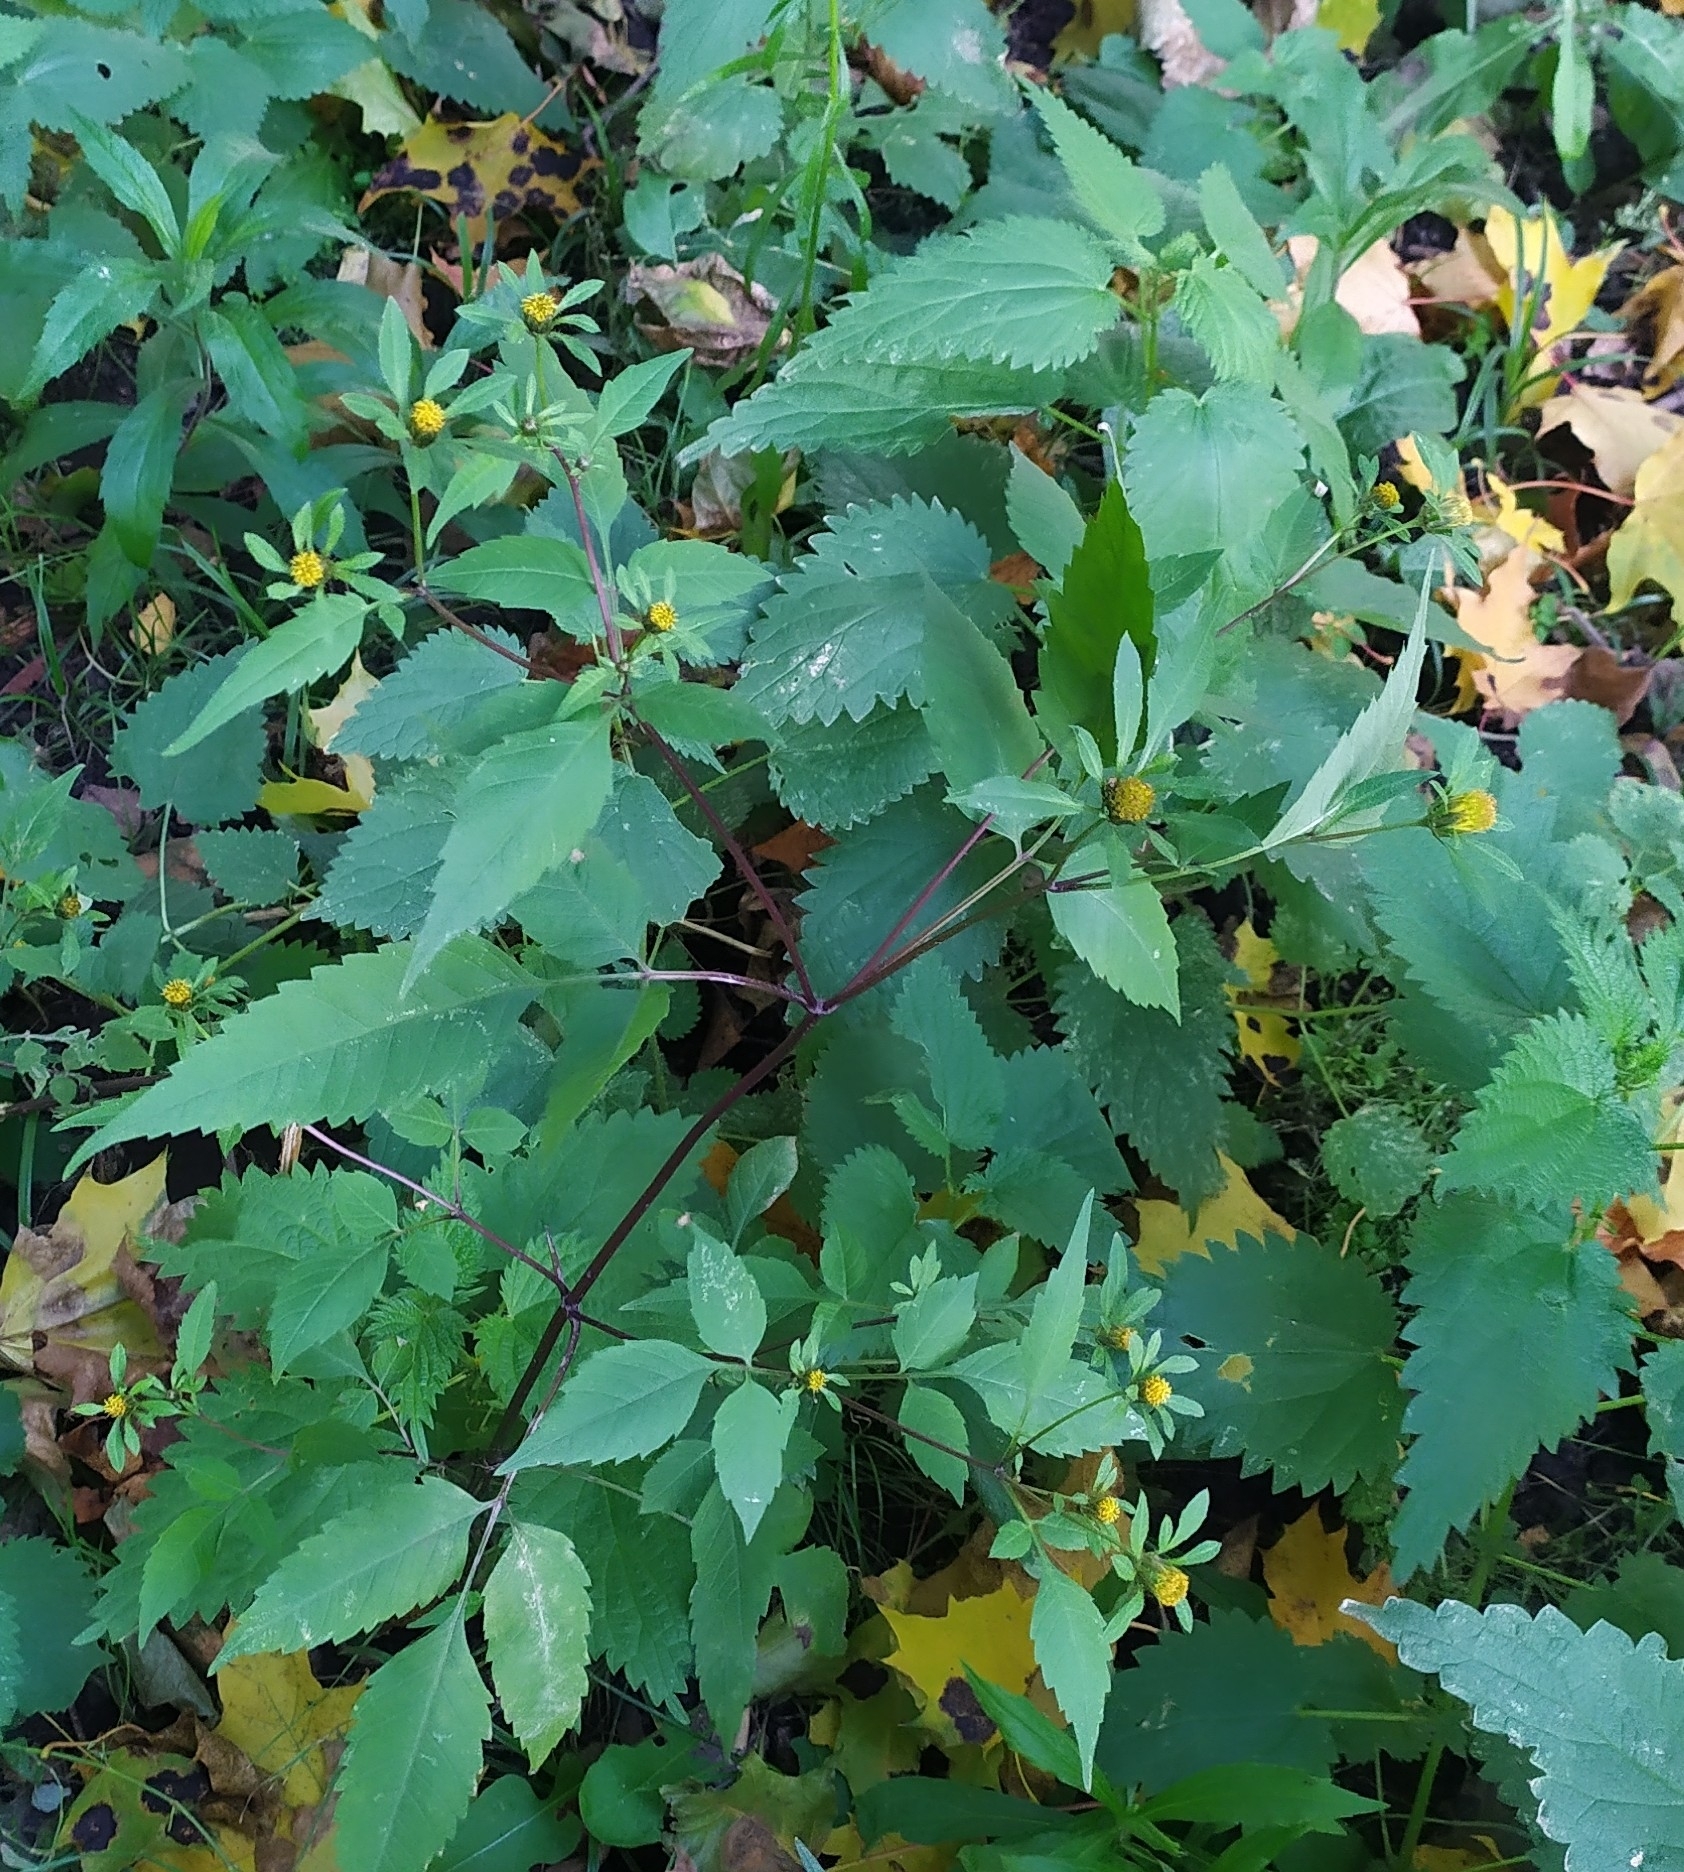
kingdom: Plantae
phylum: Tracheophyta
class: Magnoliopsida
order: Asterales
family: Asteraceae
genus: Bidens
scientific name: Bidens frondosa
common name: Beggarticks
